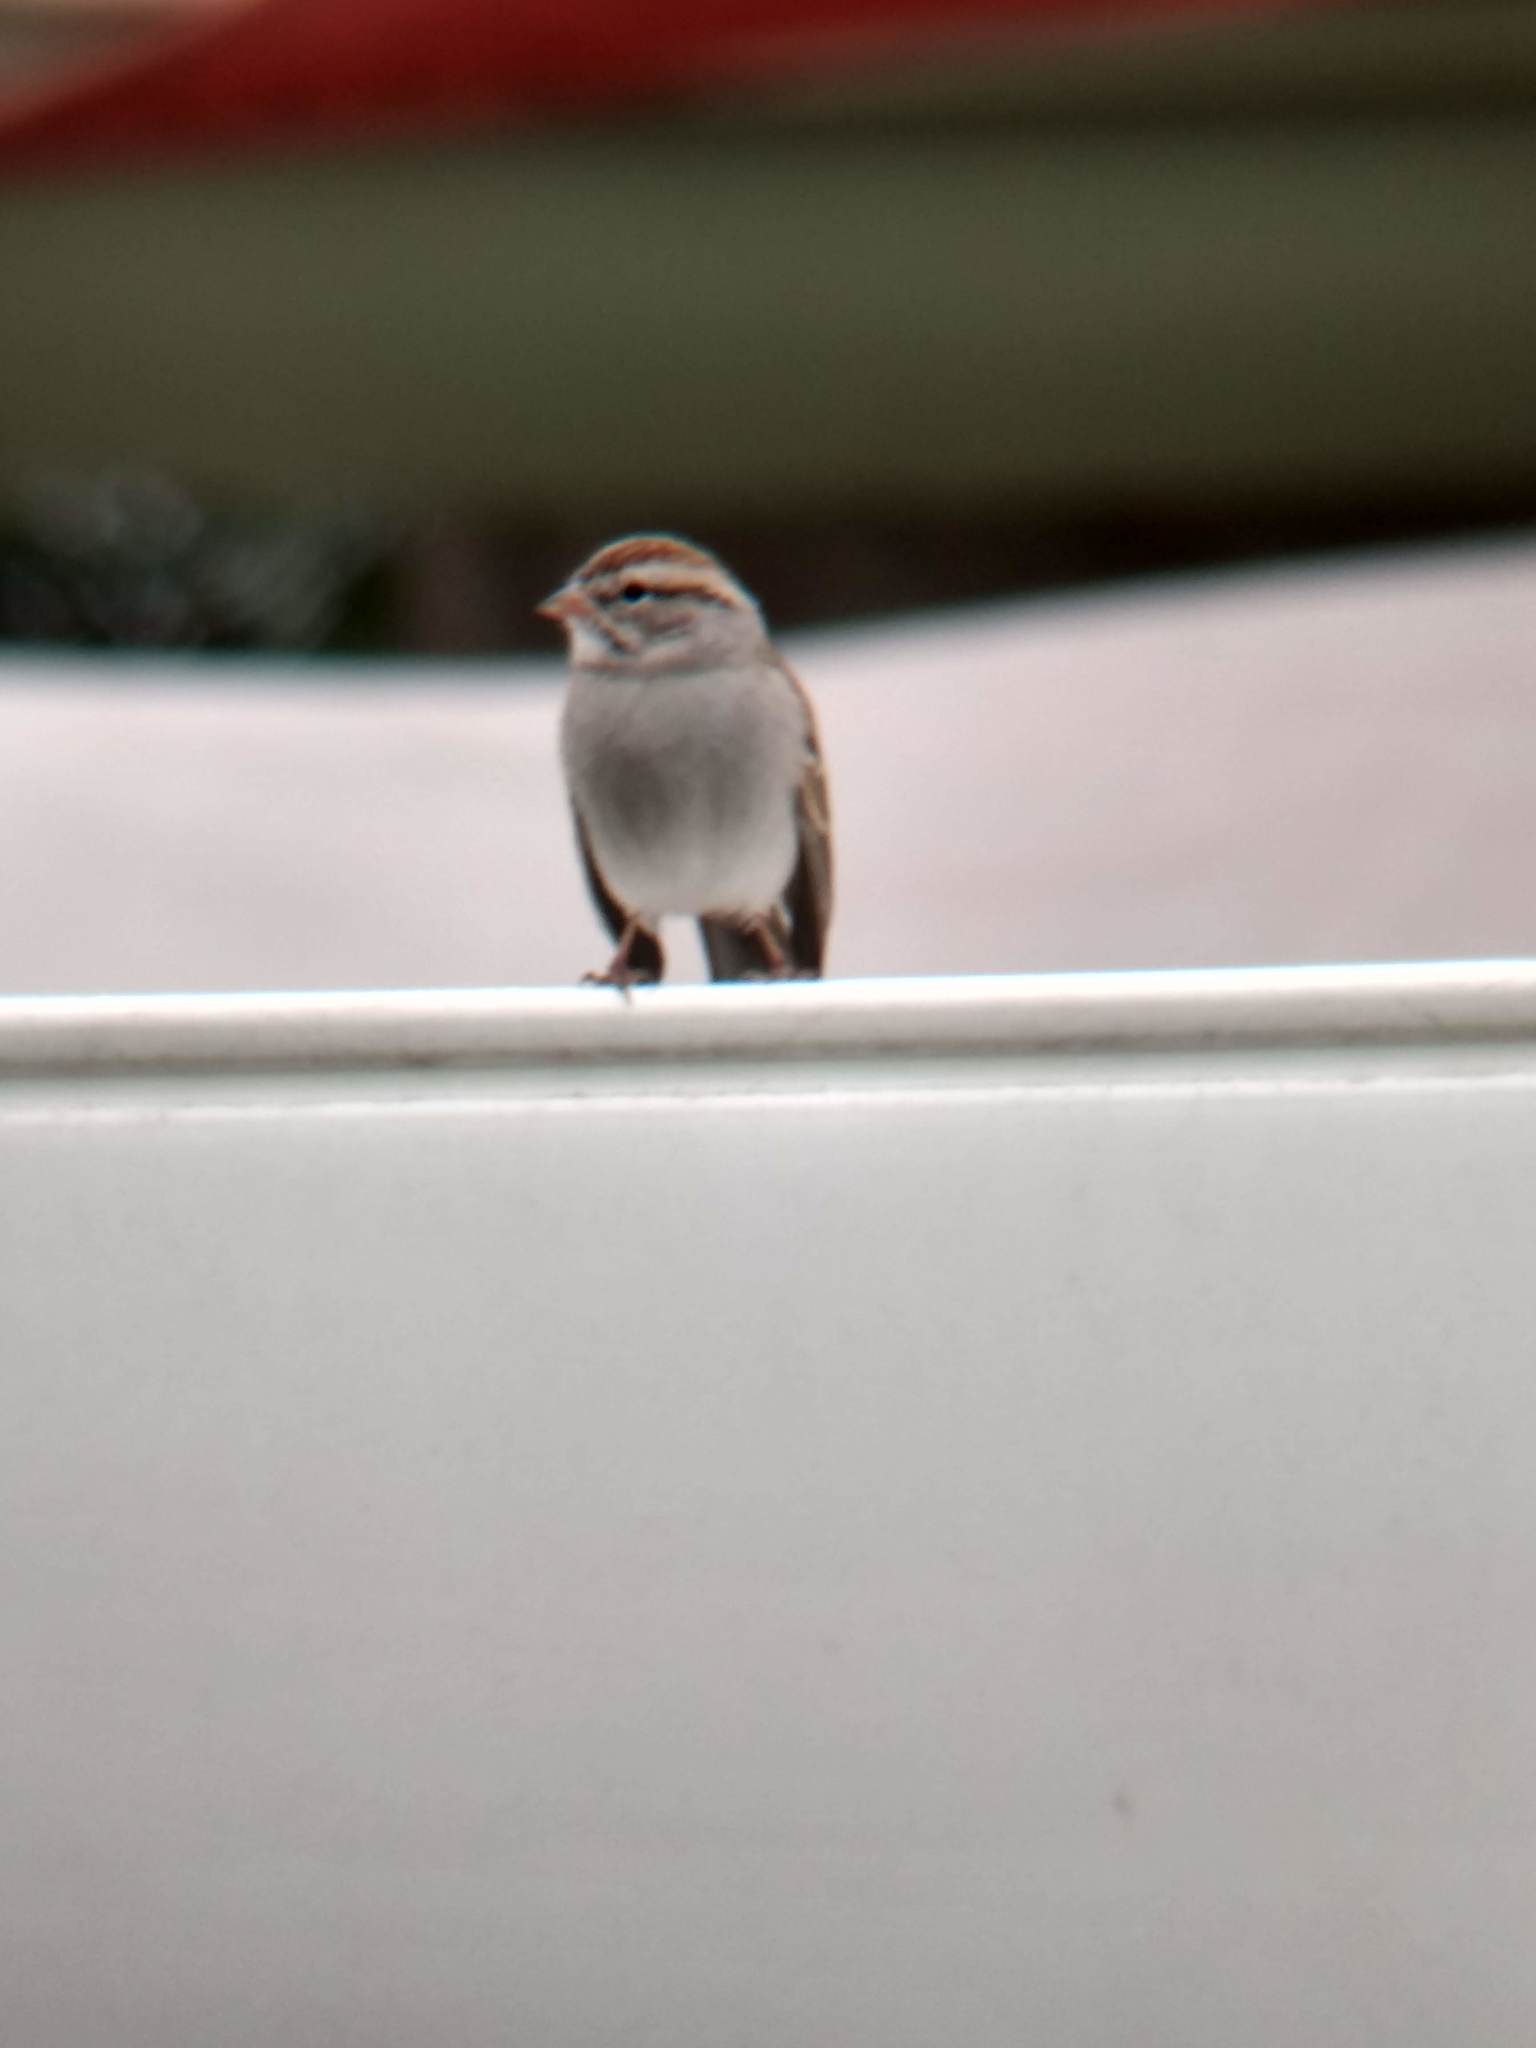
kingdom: Animalia
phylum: Chordata
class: Aves
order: Passeriformes
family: Passerellidae
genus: Spizella
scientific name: Spizella passerina
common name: Chipping sparrow
